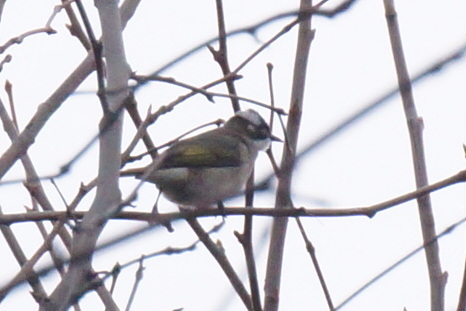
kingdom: Animalia
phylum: Chordata
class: Aves
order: Passeriformes
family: Pycnonotidae
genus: Pycnonotus
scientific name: Pycnonotus sinensis
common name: Light-vented bulbul
